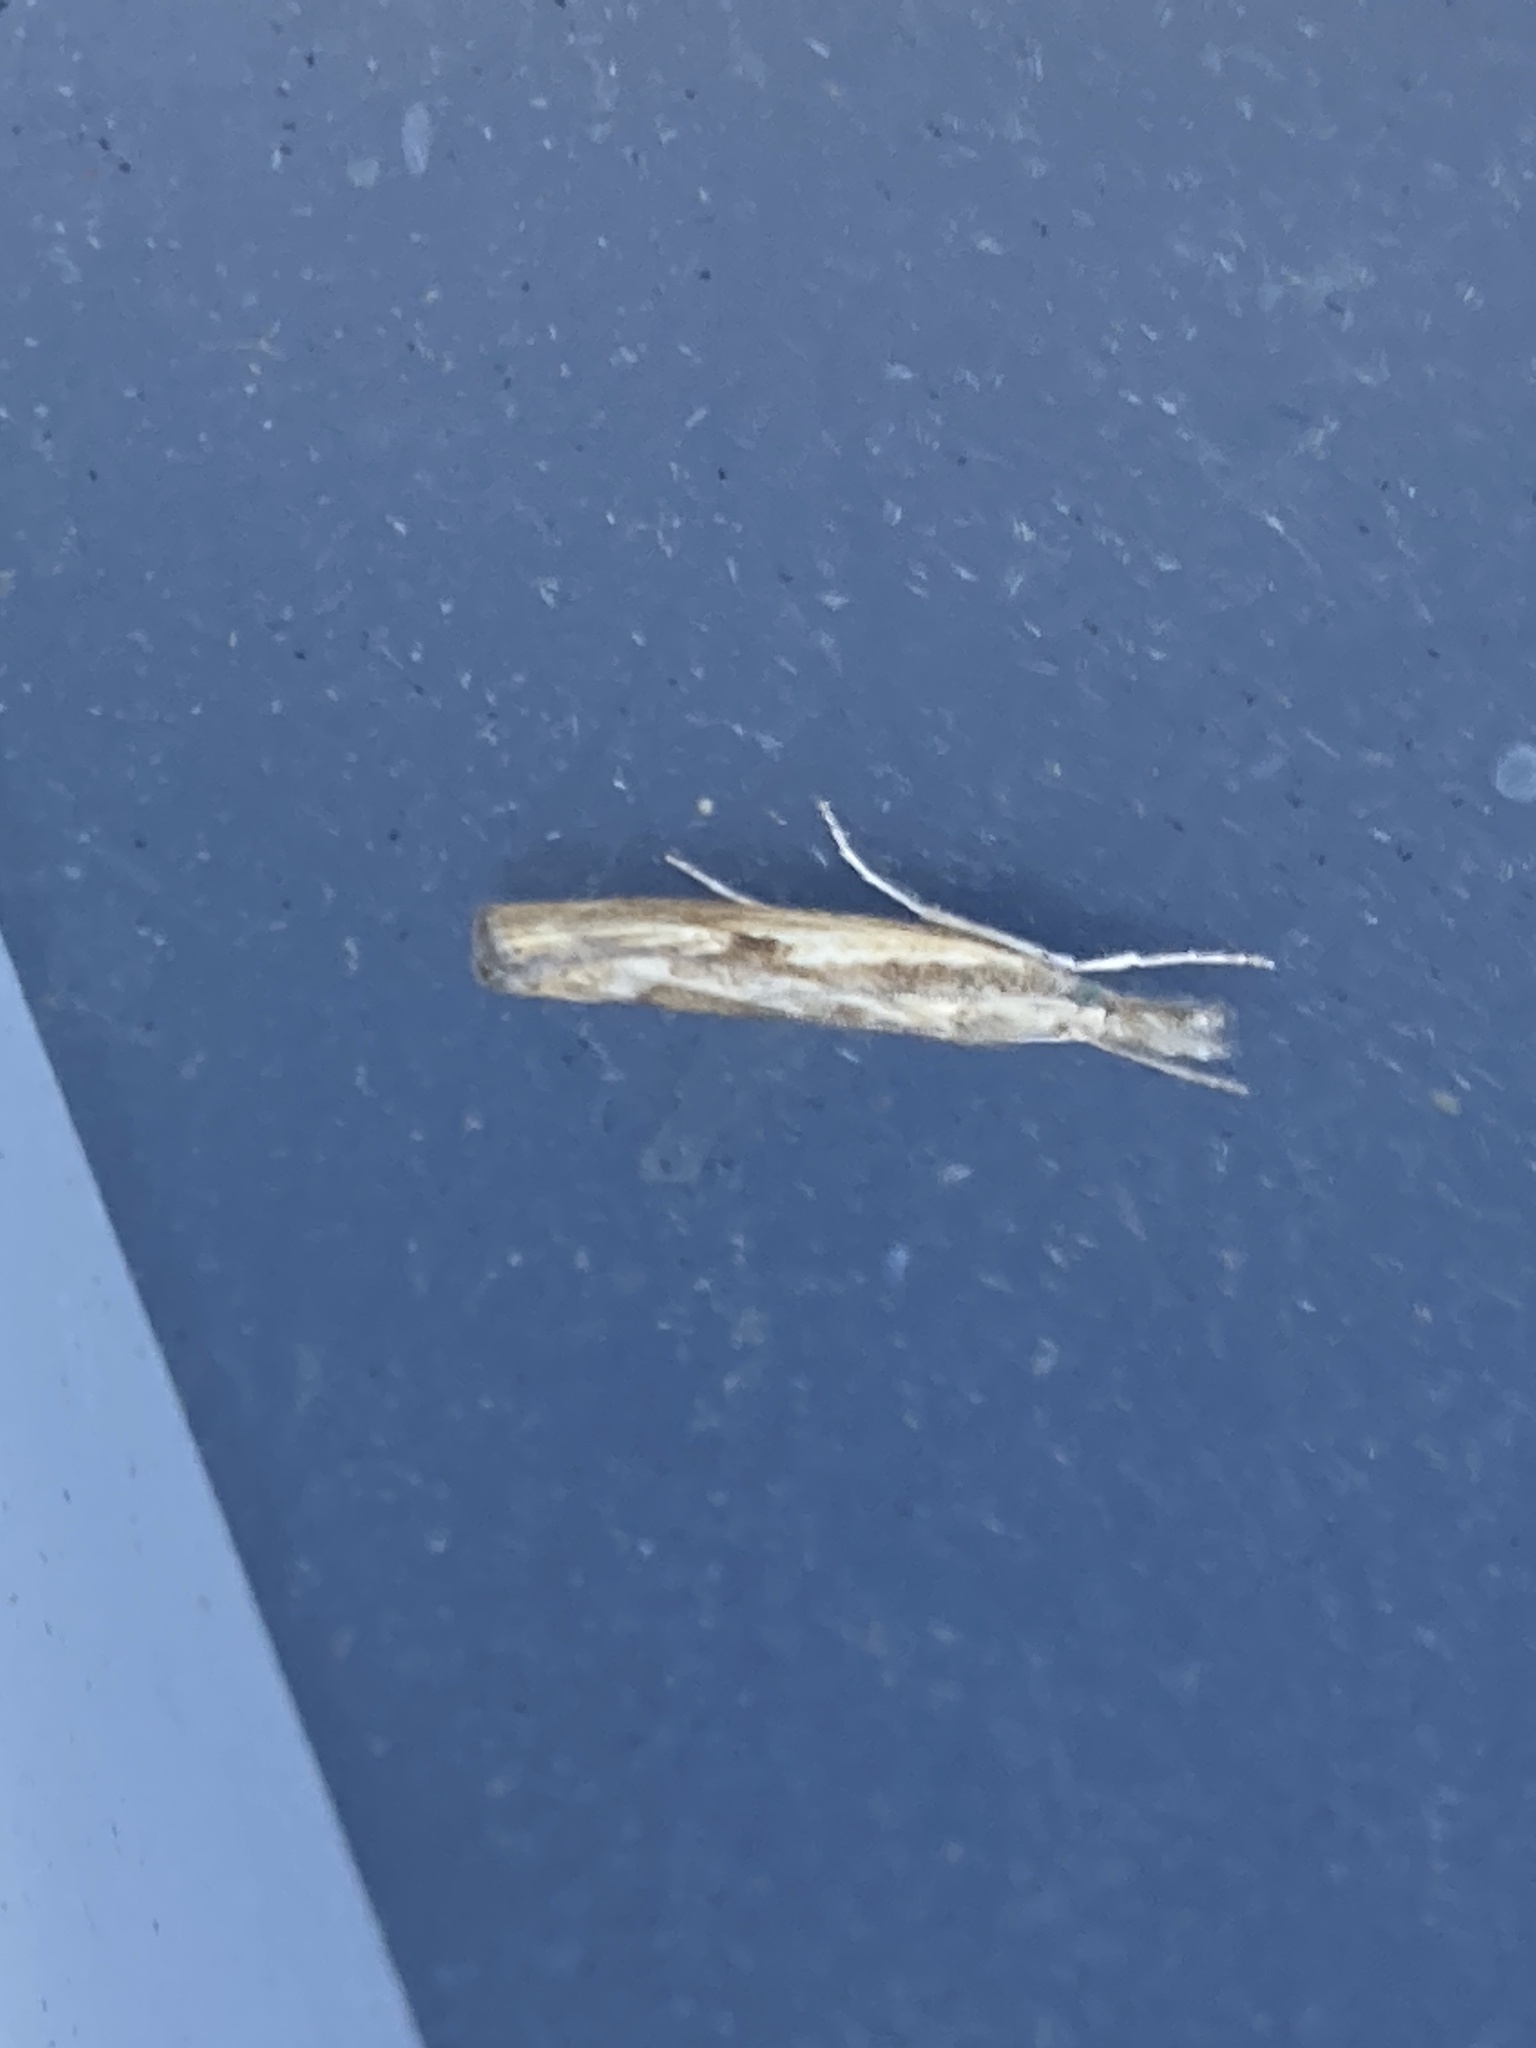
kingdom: Animalia
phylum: Arthropoda
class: Insecta
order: Lepidoptera
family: Crambidae
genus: Agriphila
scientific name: Agriphila geniculea
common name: Elbow-stripe grass-veneer
